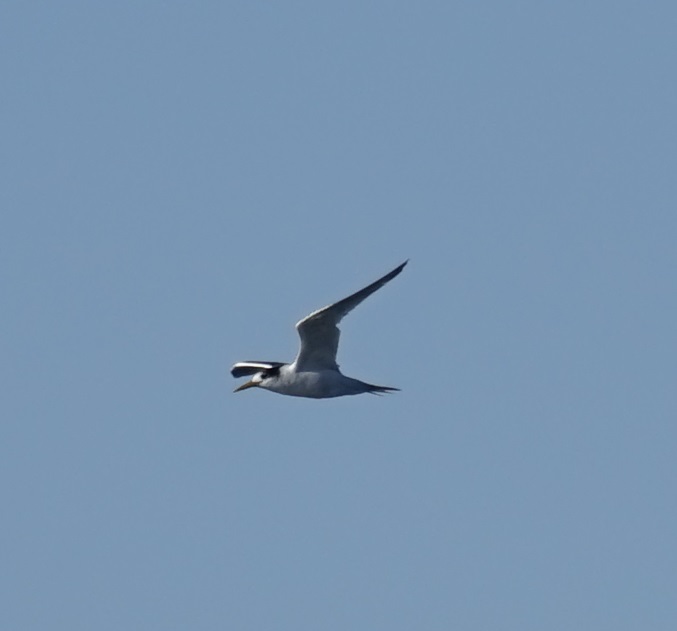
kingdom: Animalia
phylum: Chordata
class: Aves
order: Charadriiformes
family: Laridae
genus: Thalasseus
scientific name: Thalasseus bergii
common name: Greater crested tern
